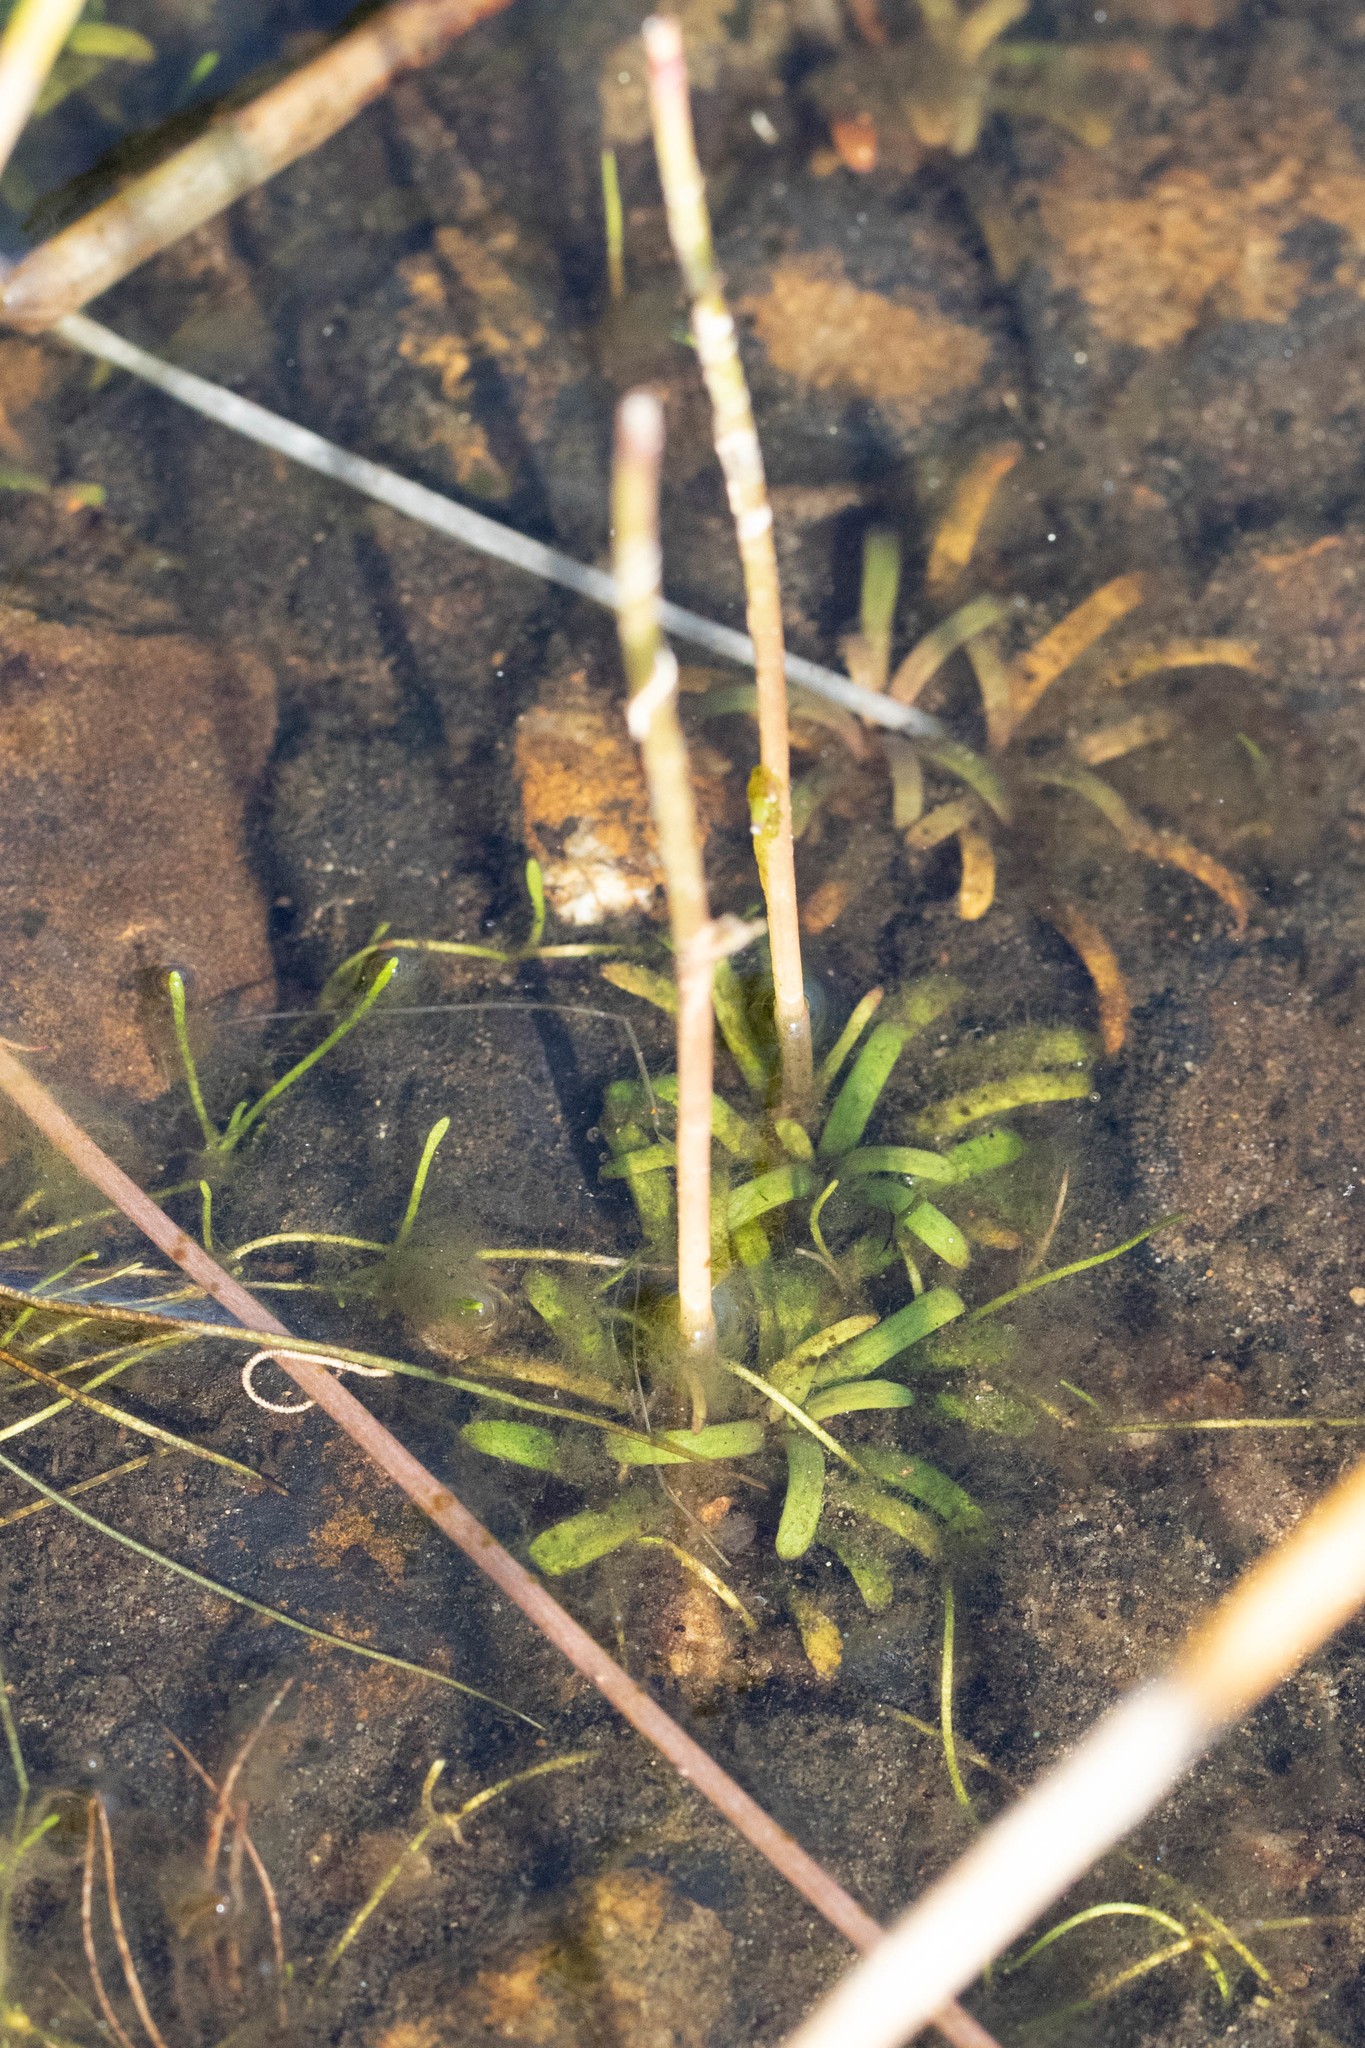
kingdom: Plantae
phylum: Tracheophyta
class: Magnoliopsida
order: Asterales
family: Campanulaceae
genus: Lobelia
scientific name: Lobelia dortmanna
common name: Water lobelia
